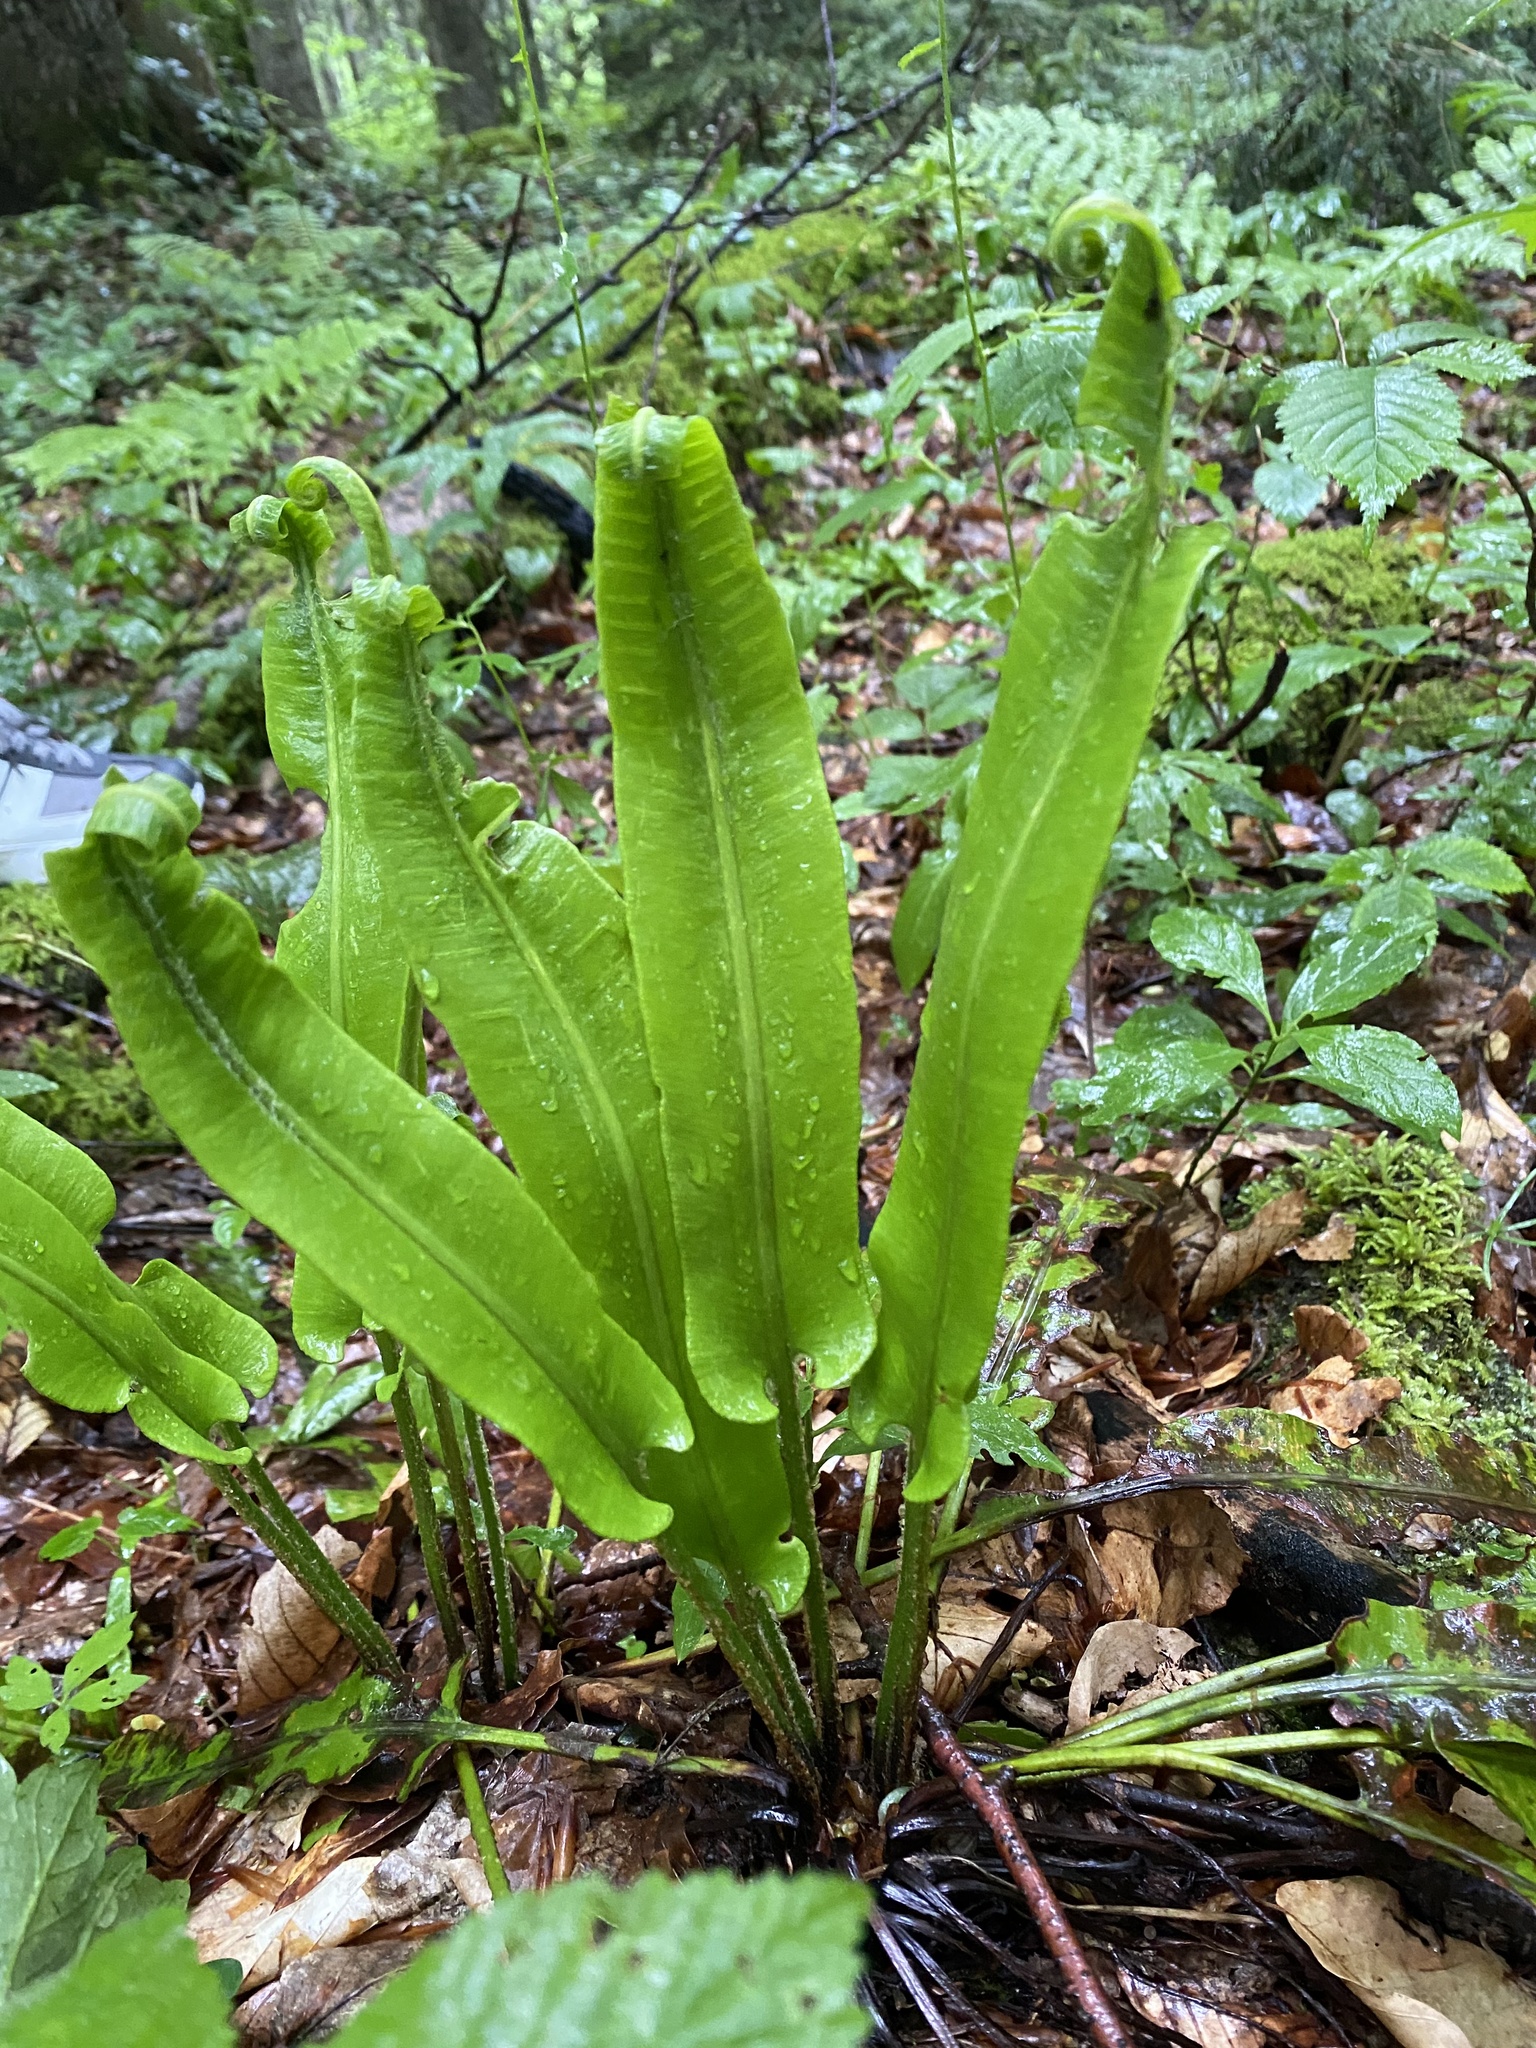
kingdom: Plantae
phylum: Tracheophyta
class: Polypodiopsida
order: Polypodiales
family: Aspleniaceae
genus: Asplenium
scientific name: Asplenium scolopendrium
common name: Hart's-tongue fern
